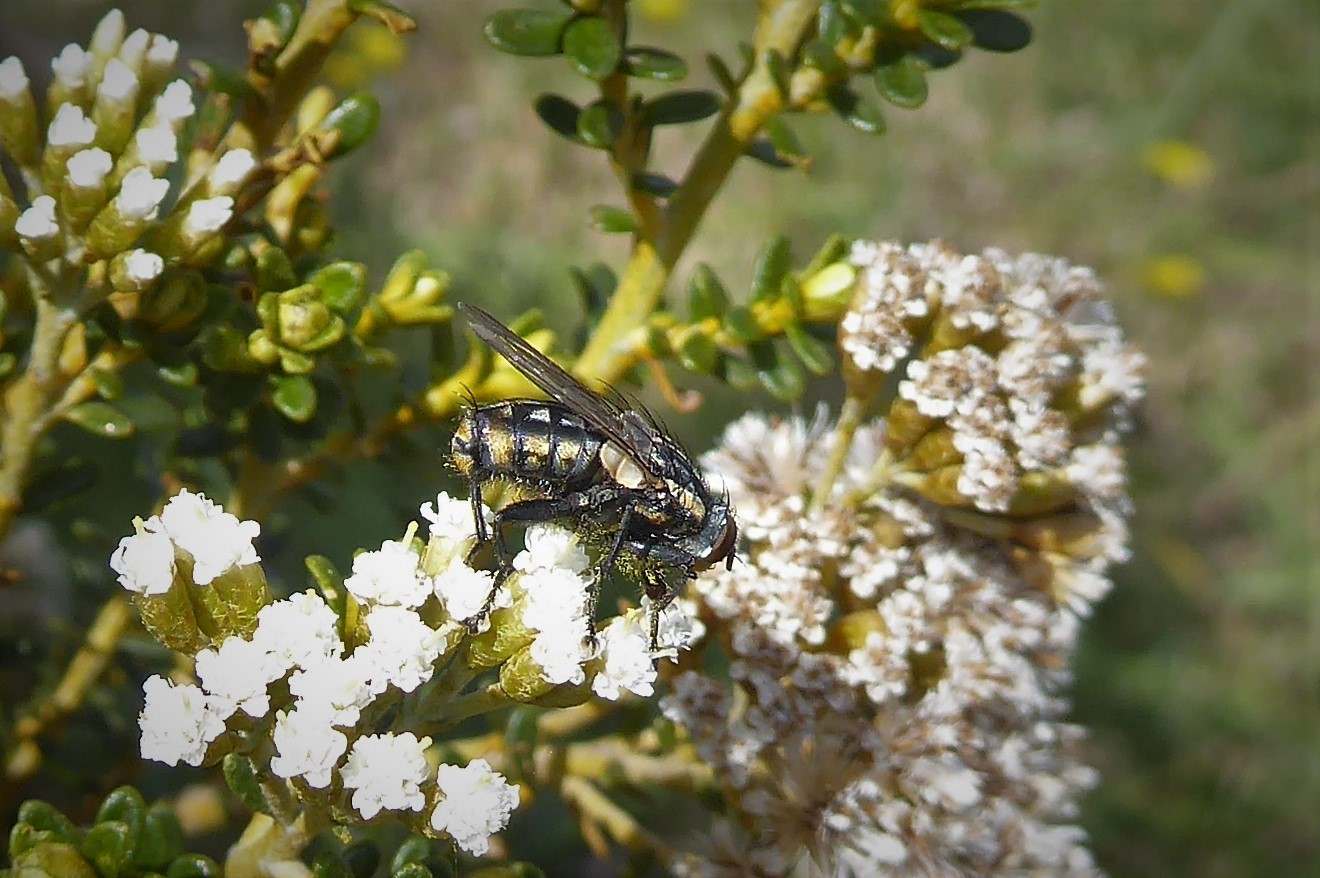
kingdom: Animalia
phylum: Arthropoda
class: Insecta
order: Diptera
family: Sarcophagidae
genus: Oxysarcodexia
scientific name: Oxysarcodexia varia
